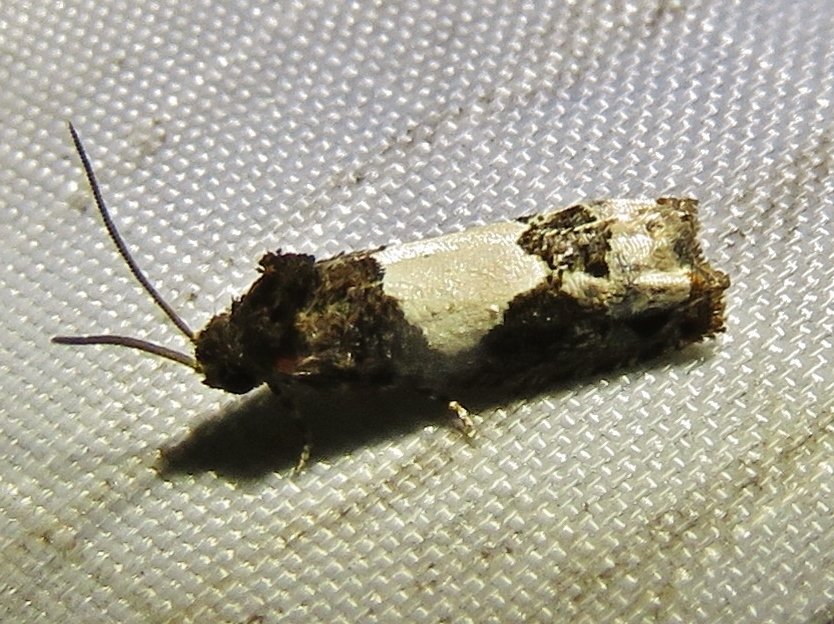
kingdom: Animalia
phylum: Arthropoda
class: Insecta
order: Lepidoptera
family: Tortricidae
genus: Epiblema
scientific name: Epiblema scudderiana
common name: Goldenrod gall moth
